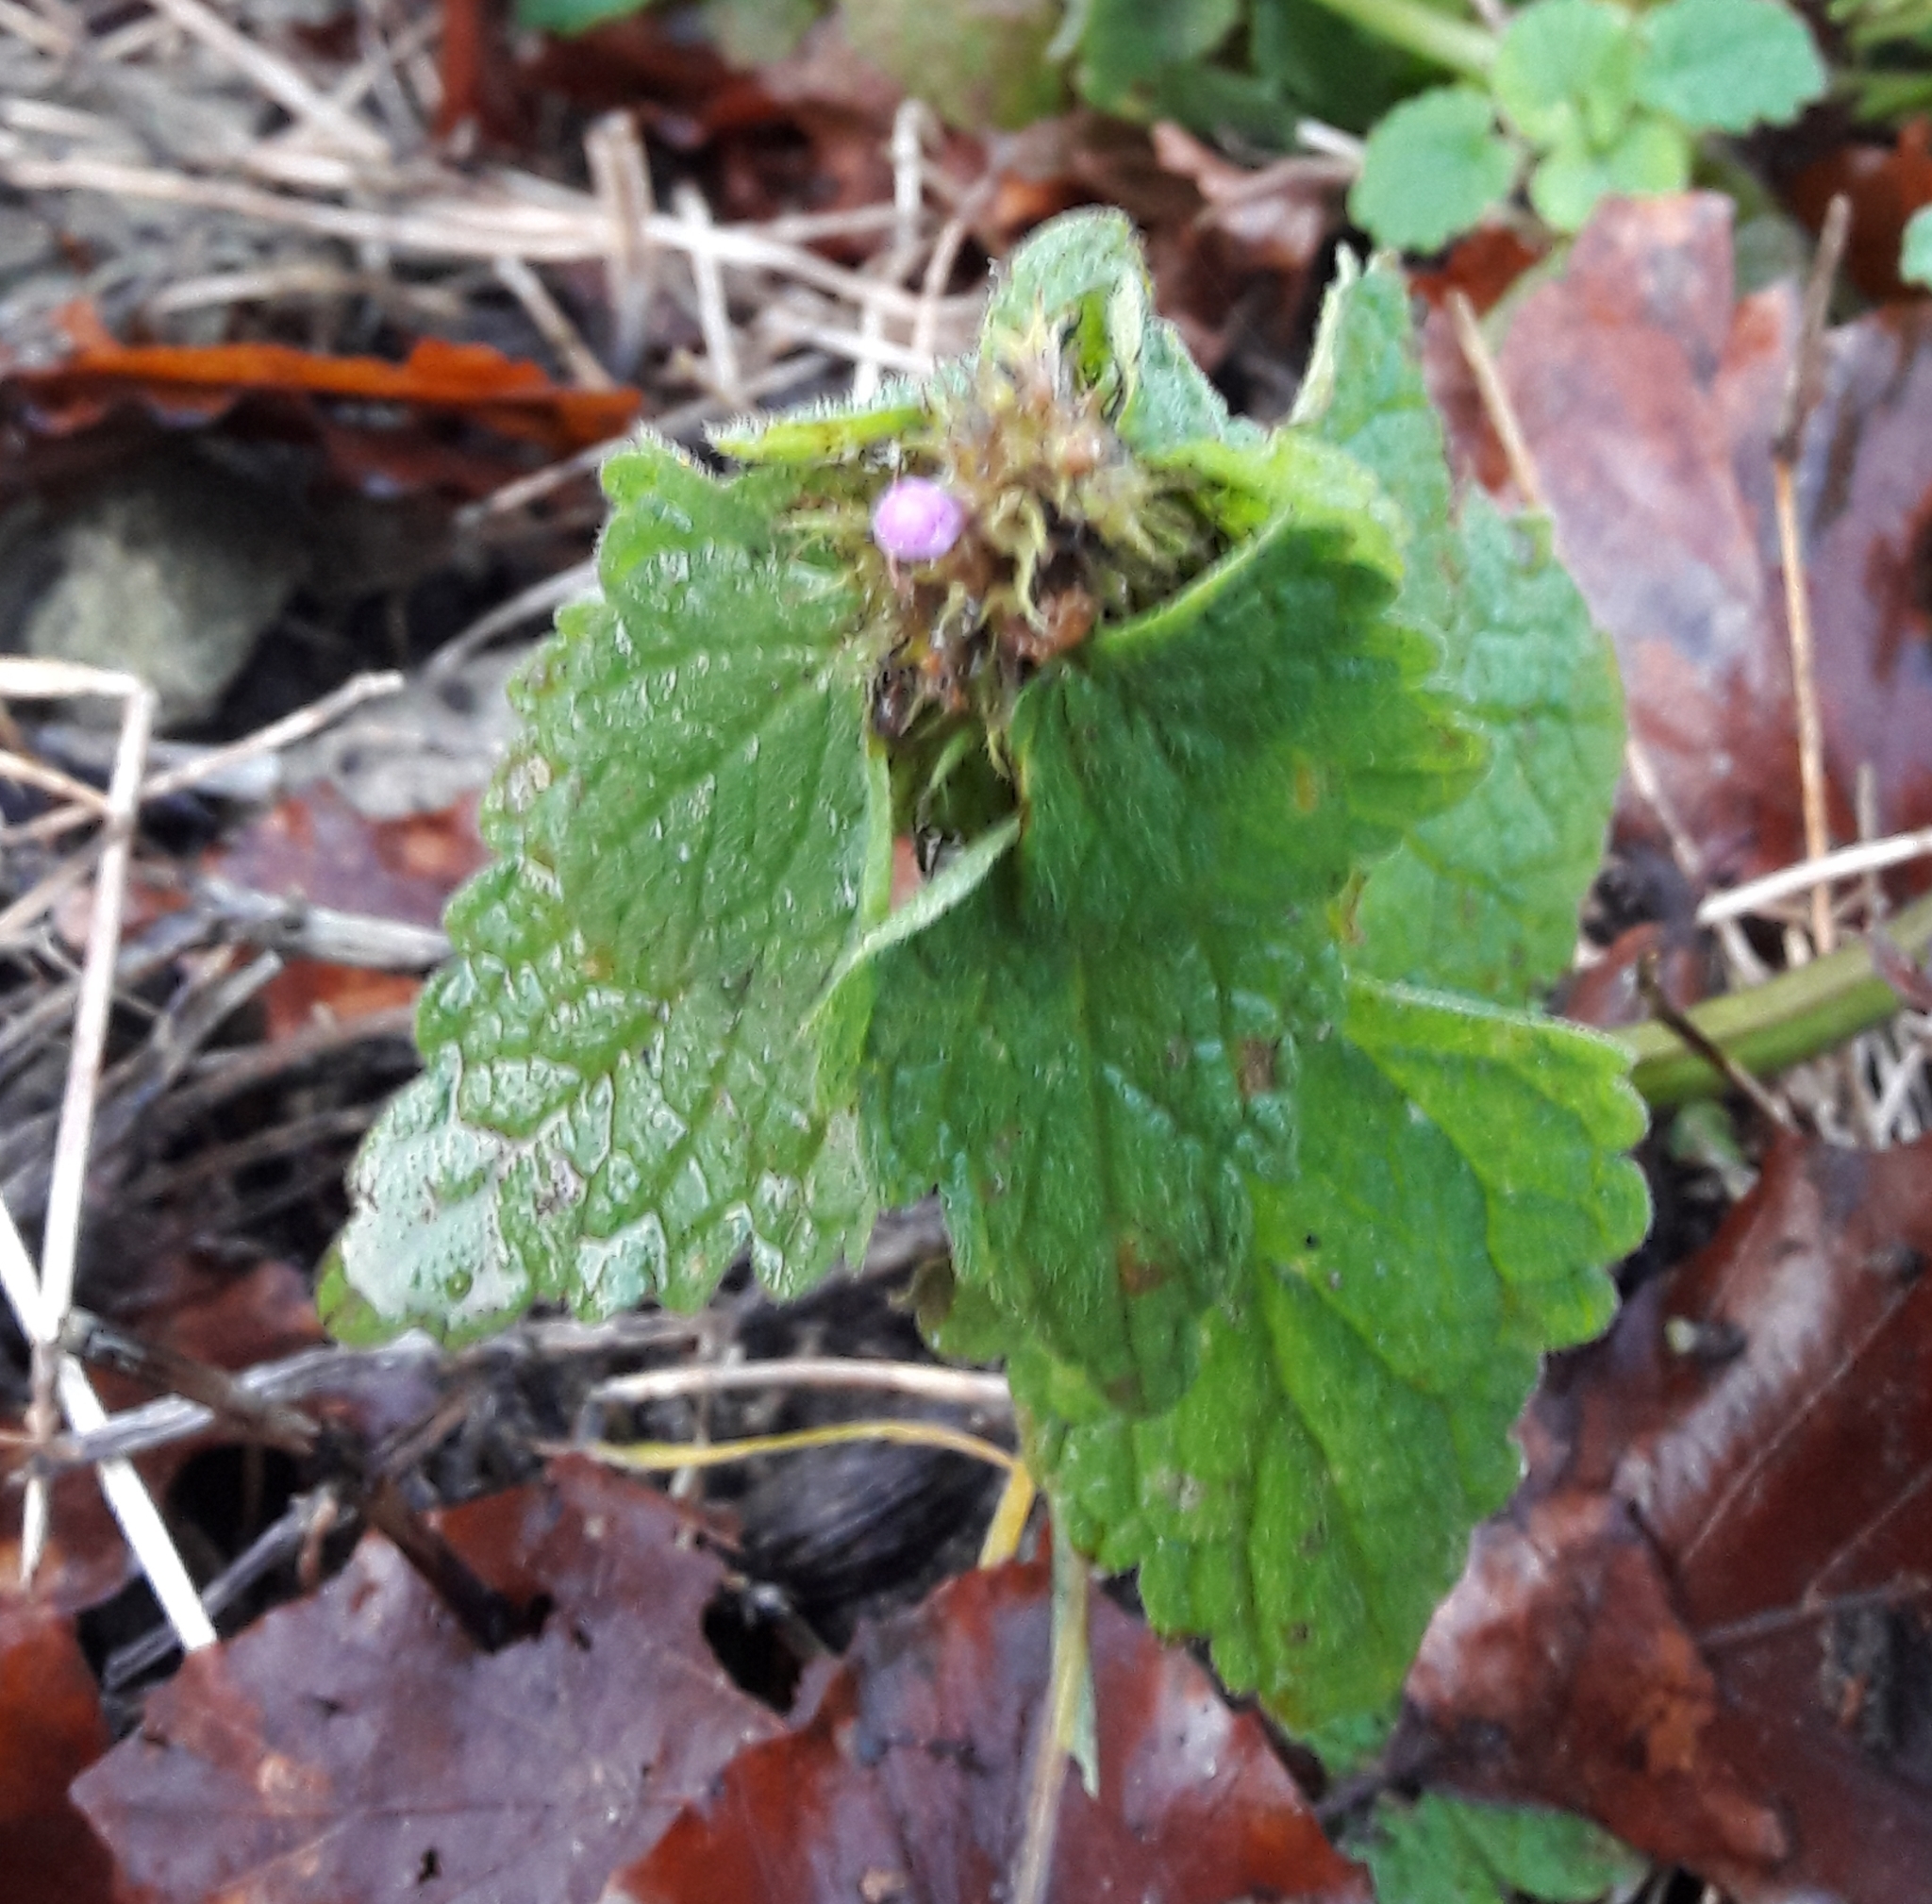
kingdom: Plantae
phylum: Tracheophyta
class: Magnoliopsida
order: Lamiales
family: Lamiaceae
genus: Lamium
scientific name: Lamium purpureum
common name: Red dead-nettle
